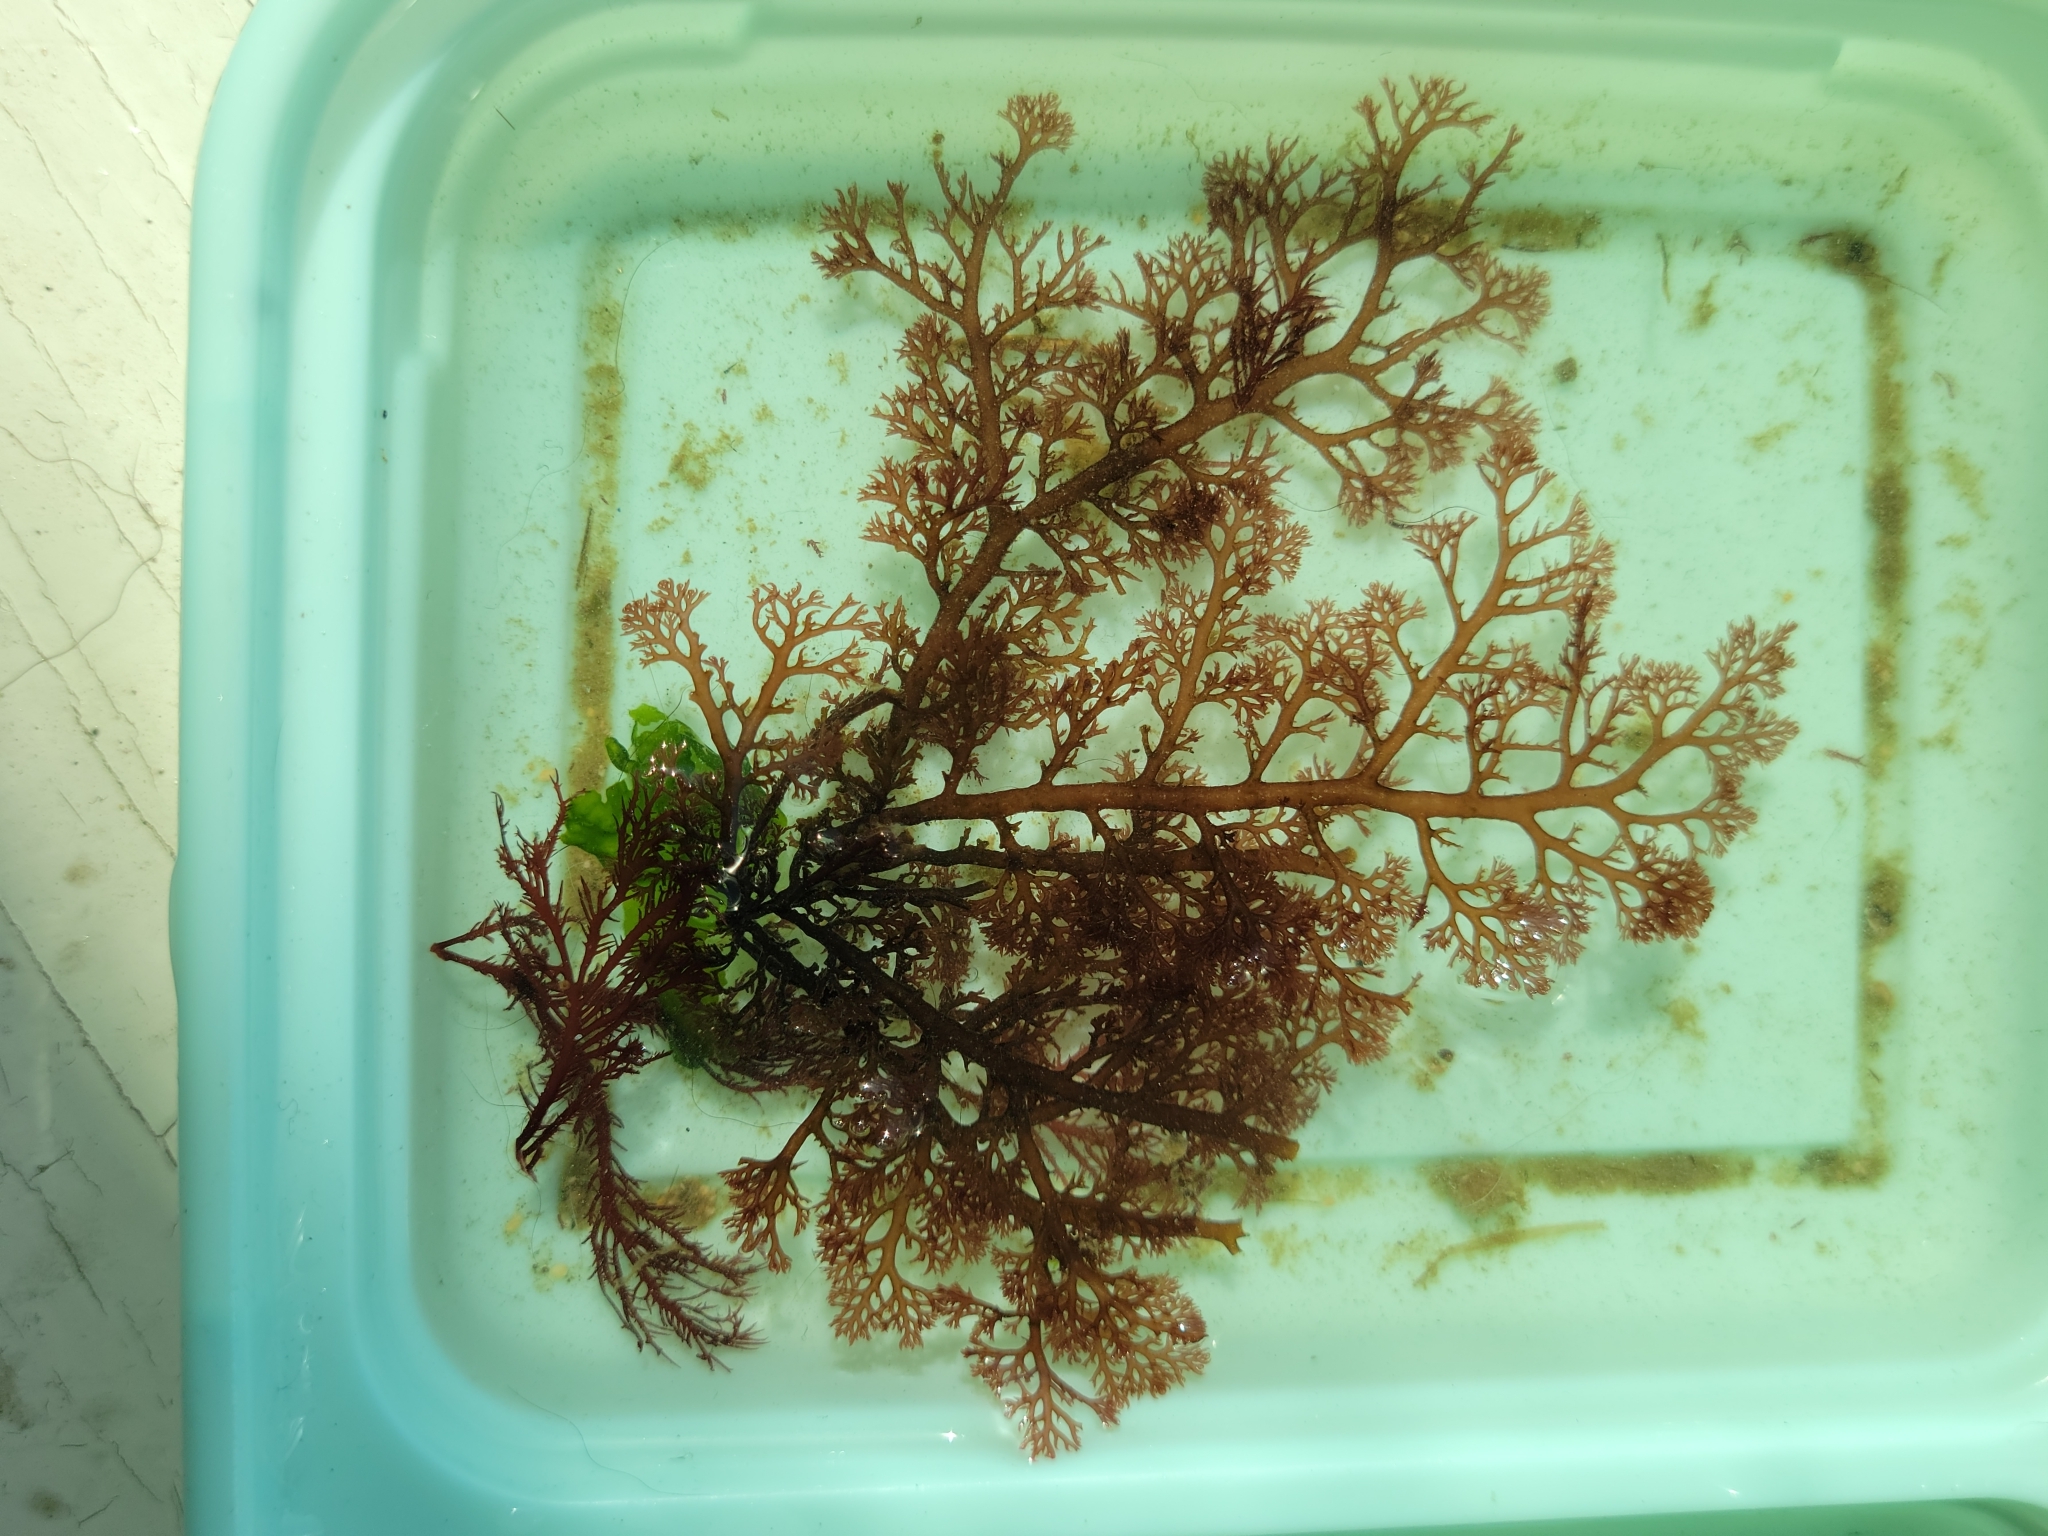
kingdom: Plantae
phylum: Rhodophyta
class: Florideophyceae
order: Ceramiales
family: Ceramiaceae
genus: Microcladia
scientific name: Microcladia coulteri
